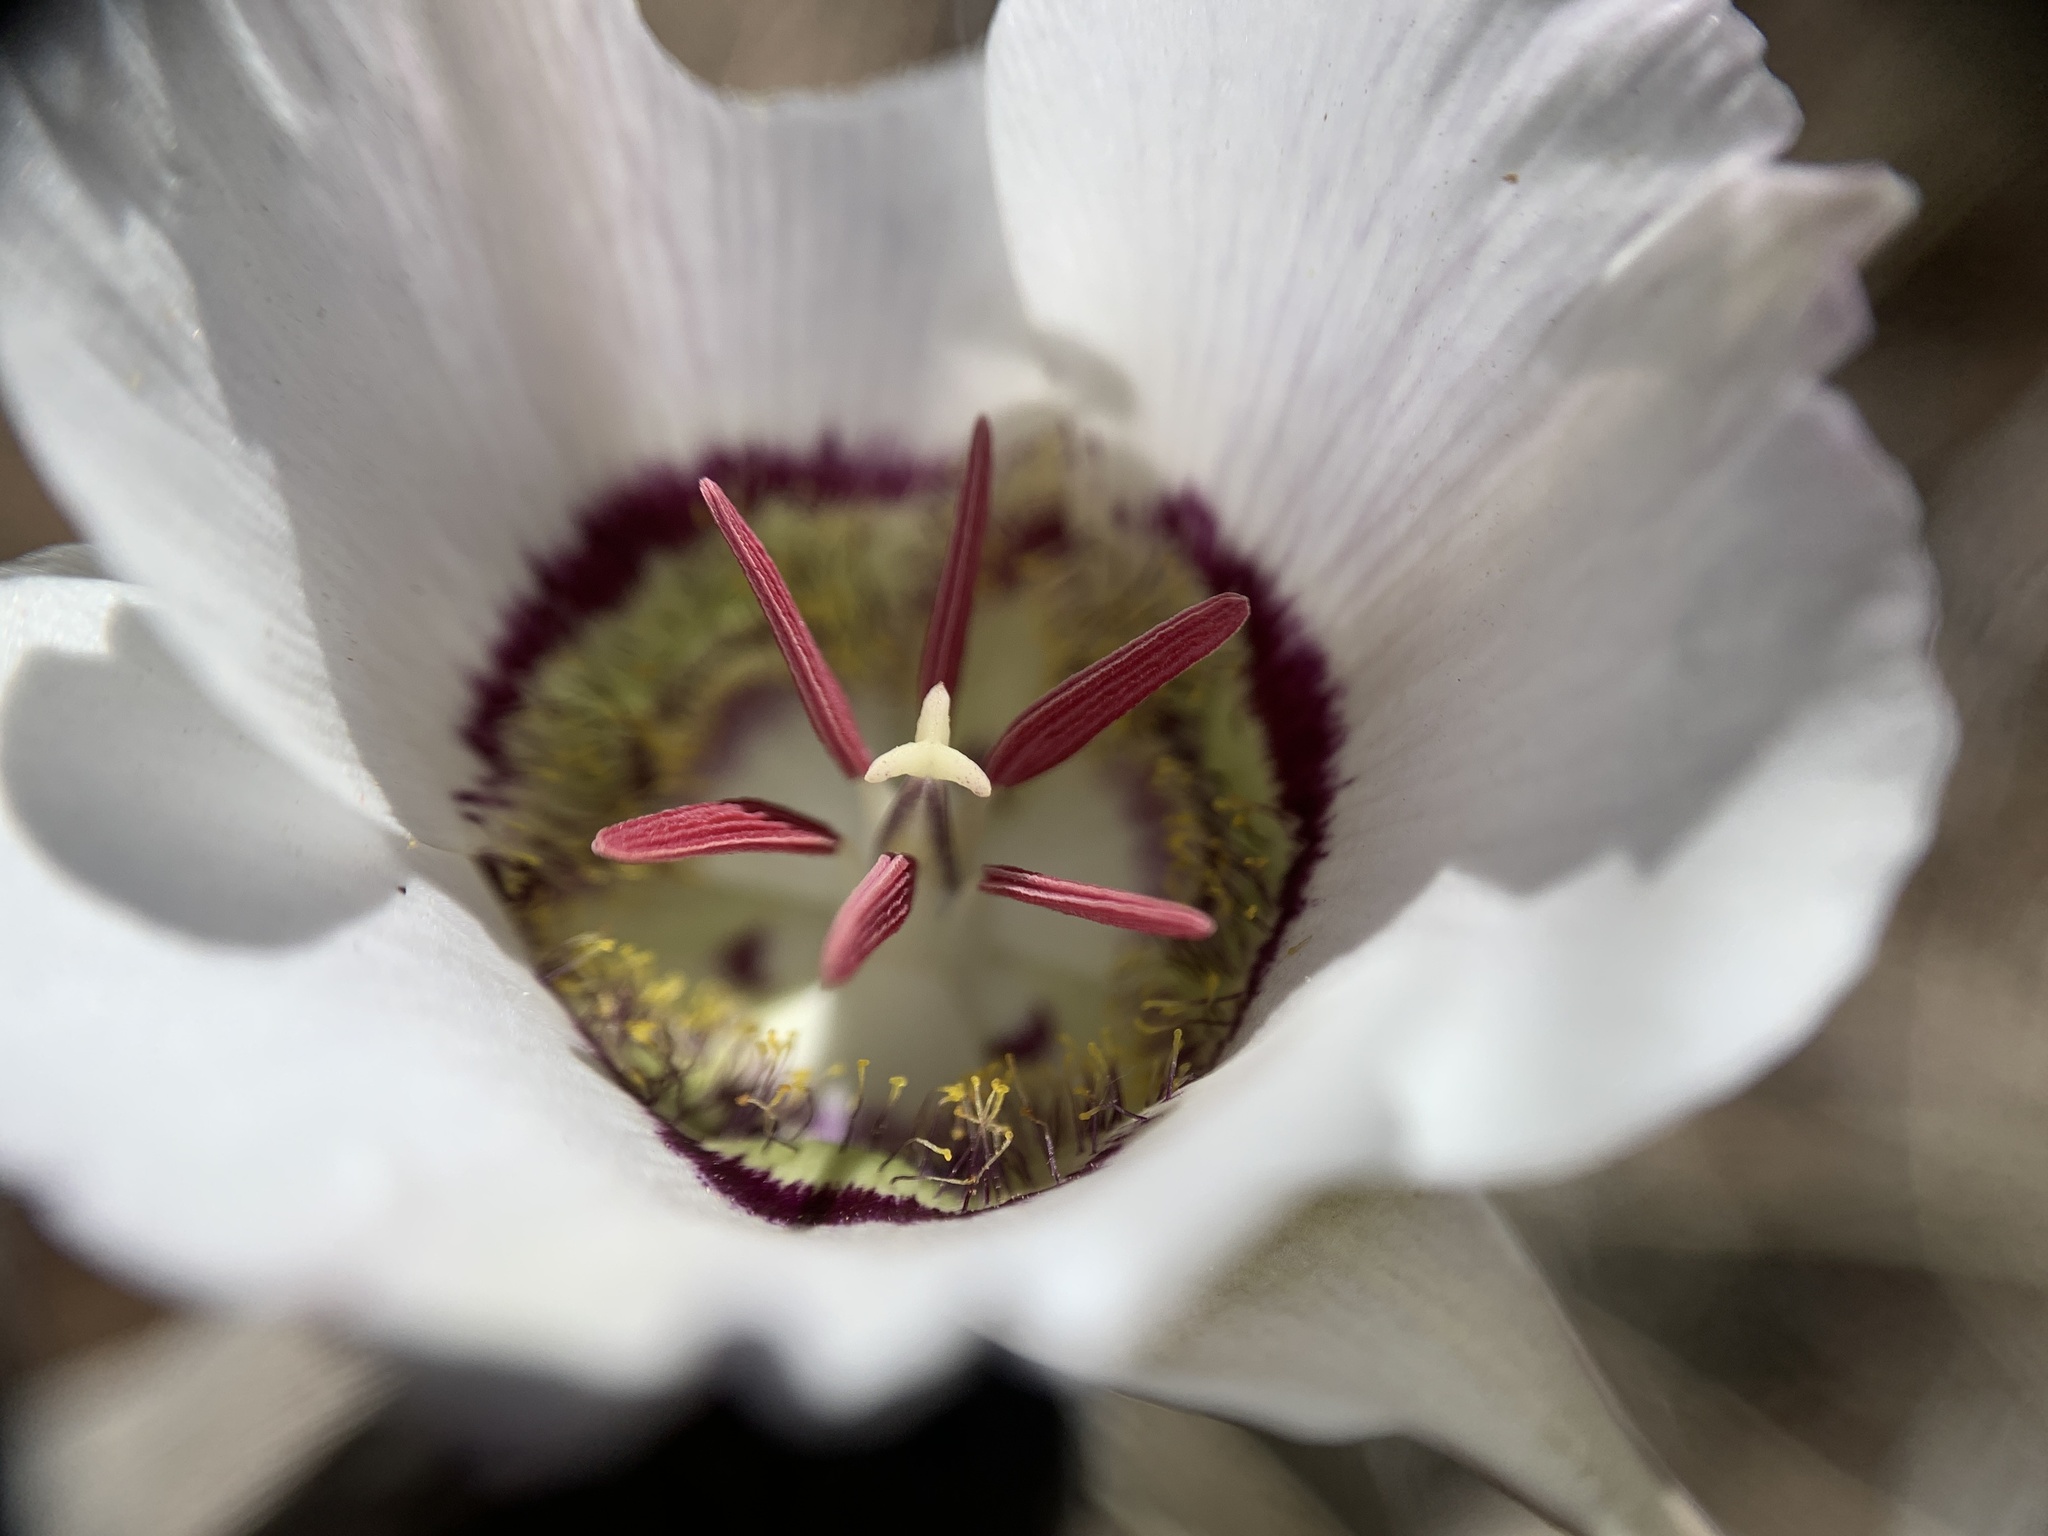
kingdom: Plantae
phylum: Tracheophyta
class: Liliopsida
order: Liliales
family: Liliaceae
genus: Calochortus
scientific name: Calochortus ambiguus
